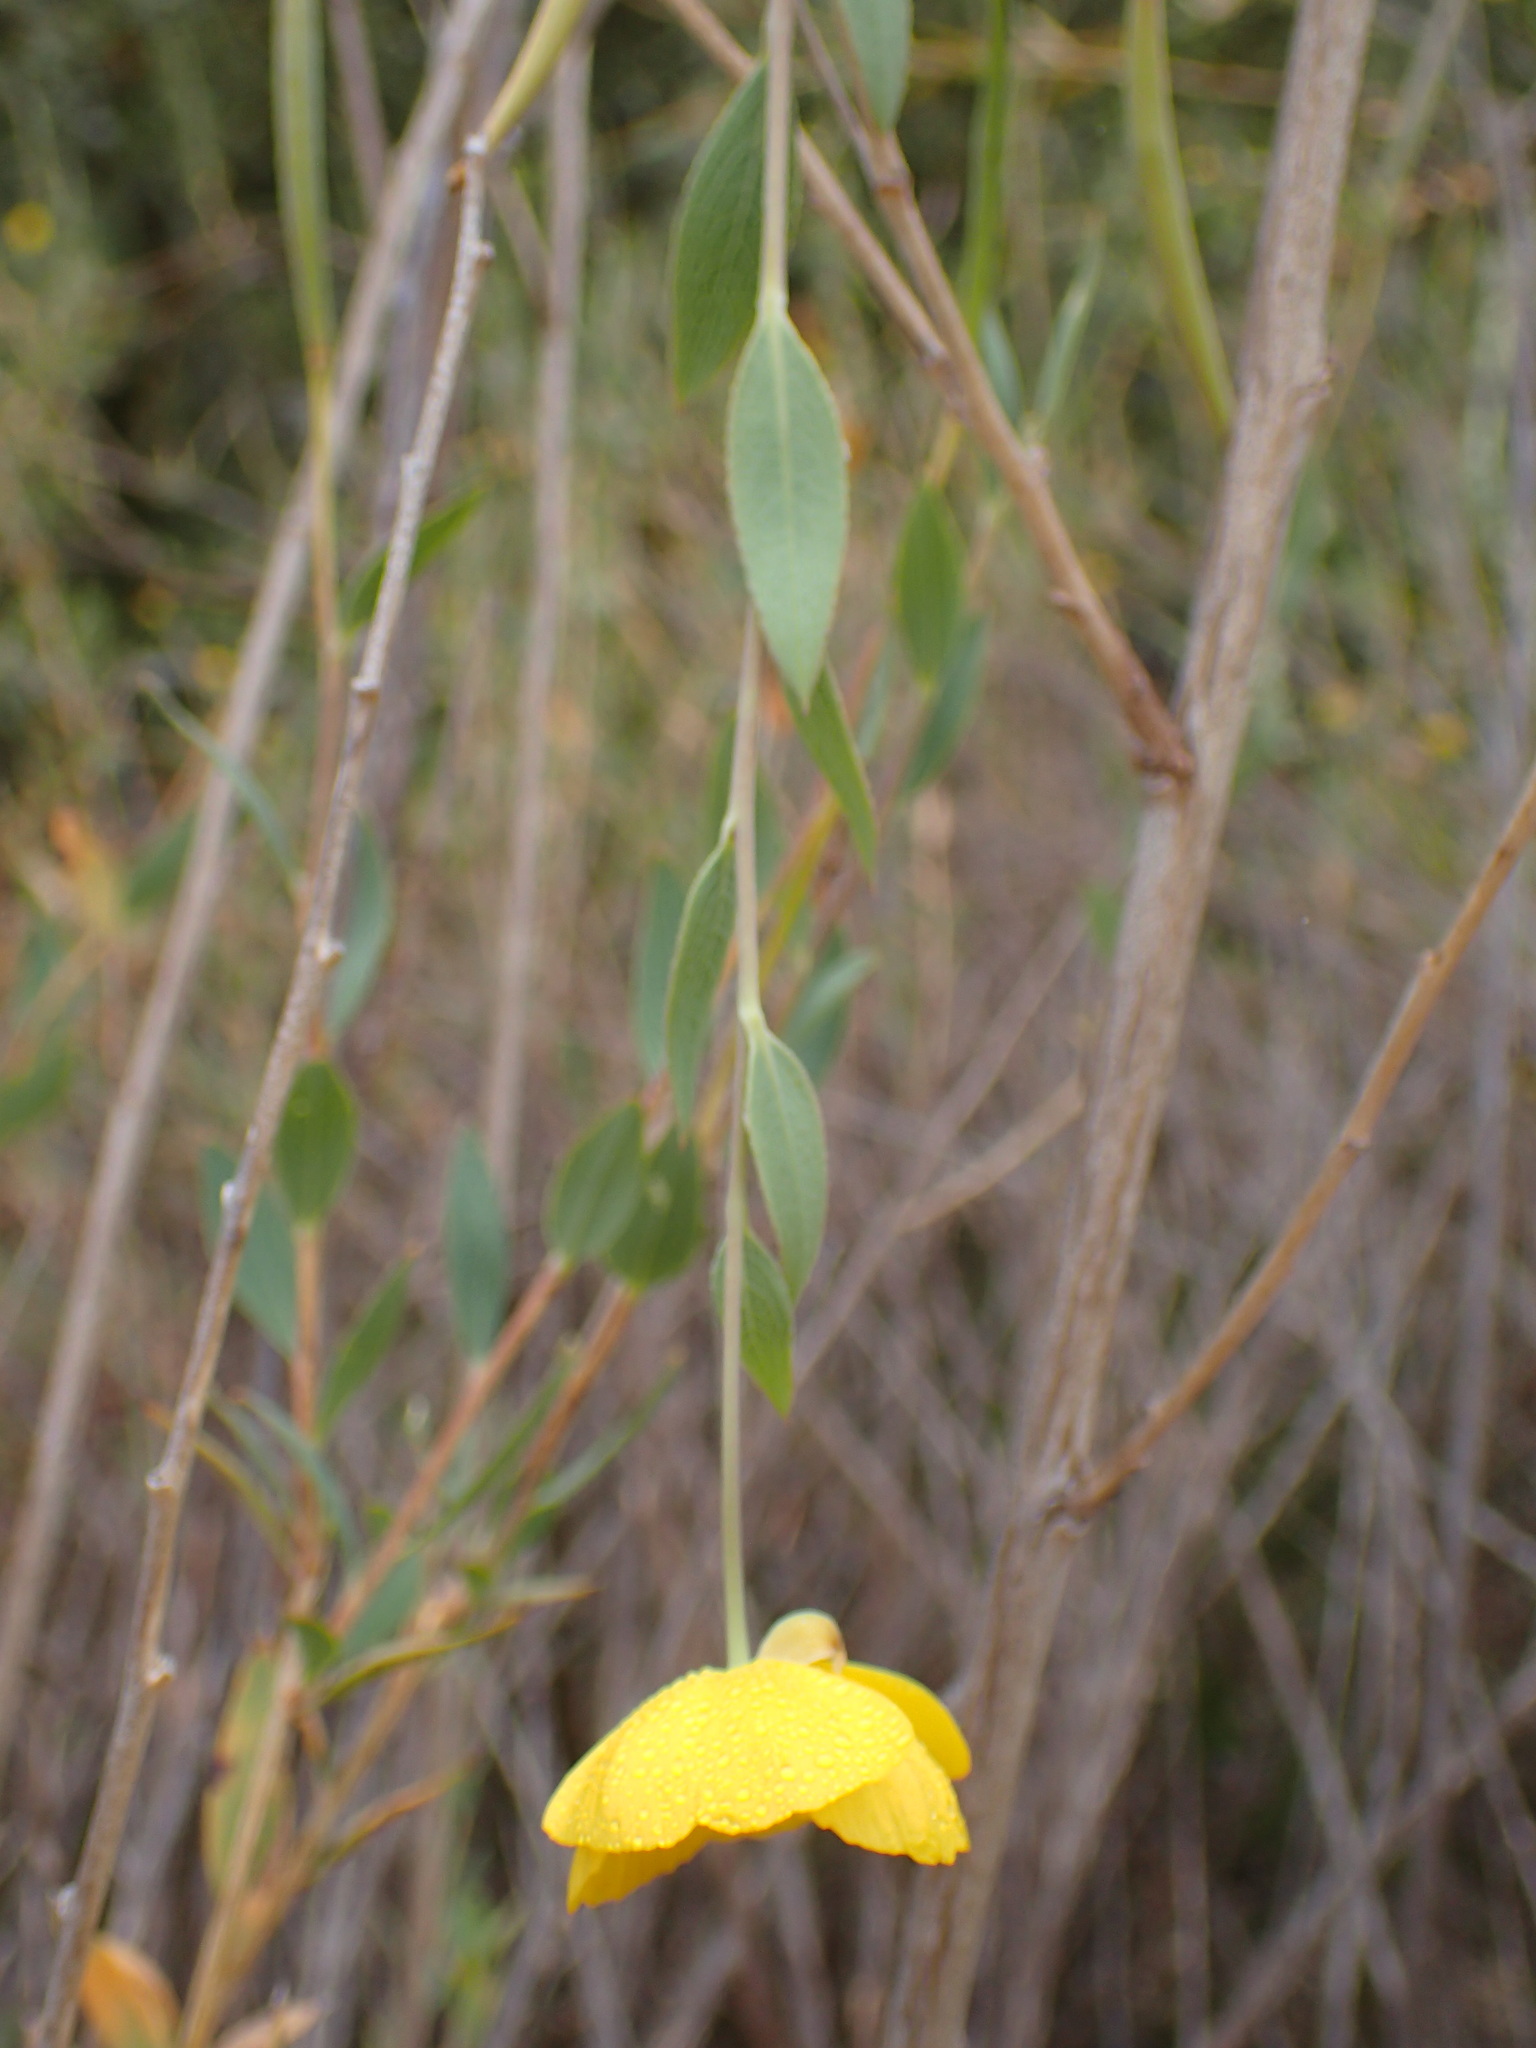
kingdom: Plantae
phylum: Tracheophyta
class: Magnoliopsida
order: Ranunculales
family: Papaveraceae
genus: Dendromecon
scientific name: Dendromecon rigida
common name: Tree poppy
